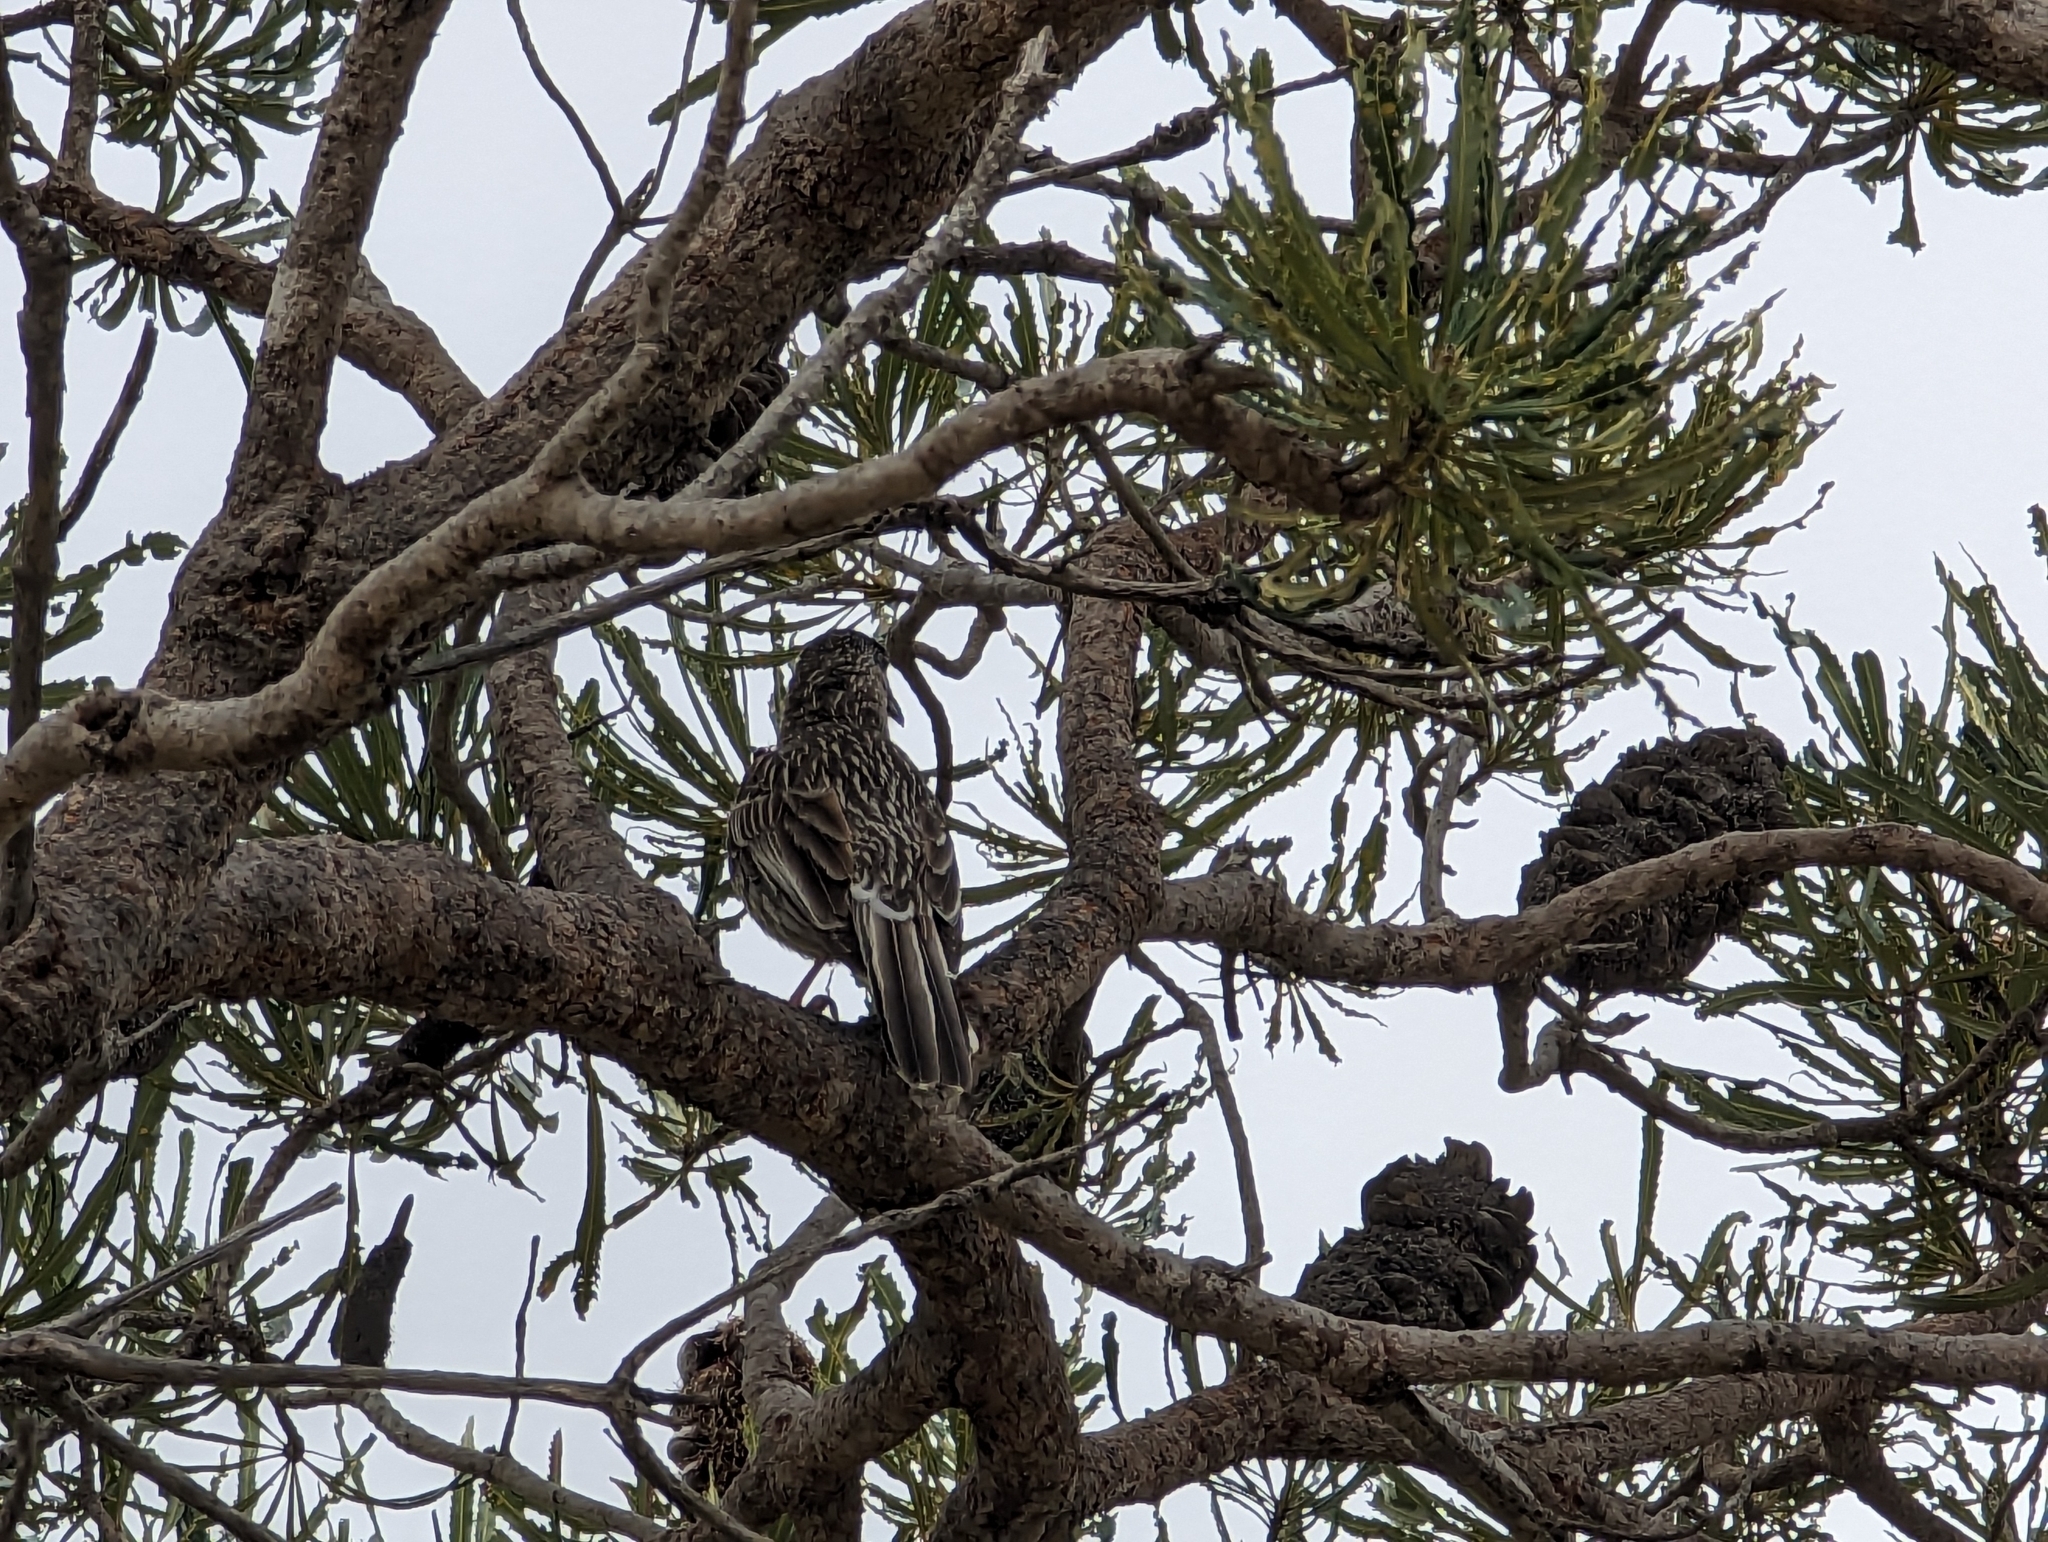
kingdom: Animalia
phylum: Chordata
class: Aves
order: Passeriformes
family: Meliphagidae
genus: Anthochaera
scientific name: Anthochaera carunculata
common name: Red wattlebird
